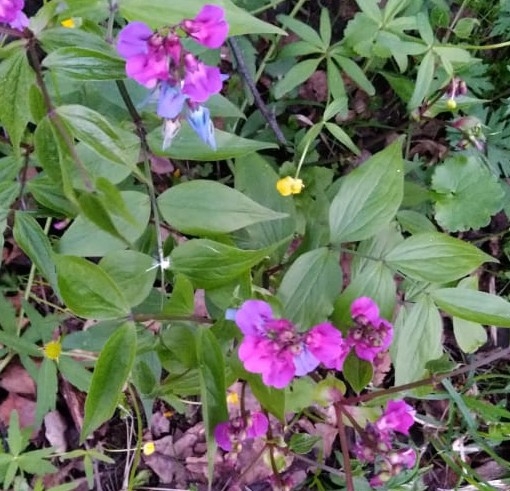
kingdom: Plantae
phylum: Tracheophyta
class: Magnoliopsida
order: Fabales
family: Fabaceae
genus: Lathyrus
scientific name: Lathyrus vernus
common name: Spring pea
